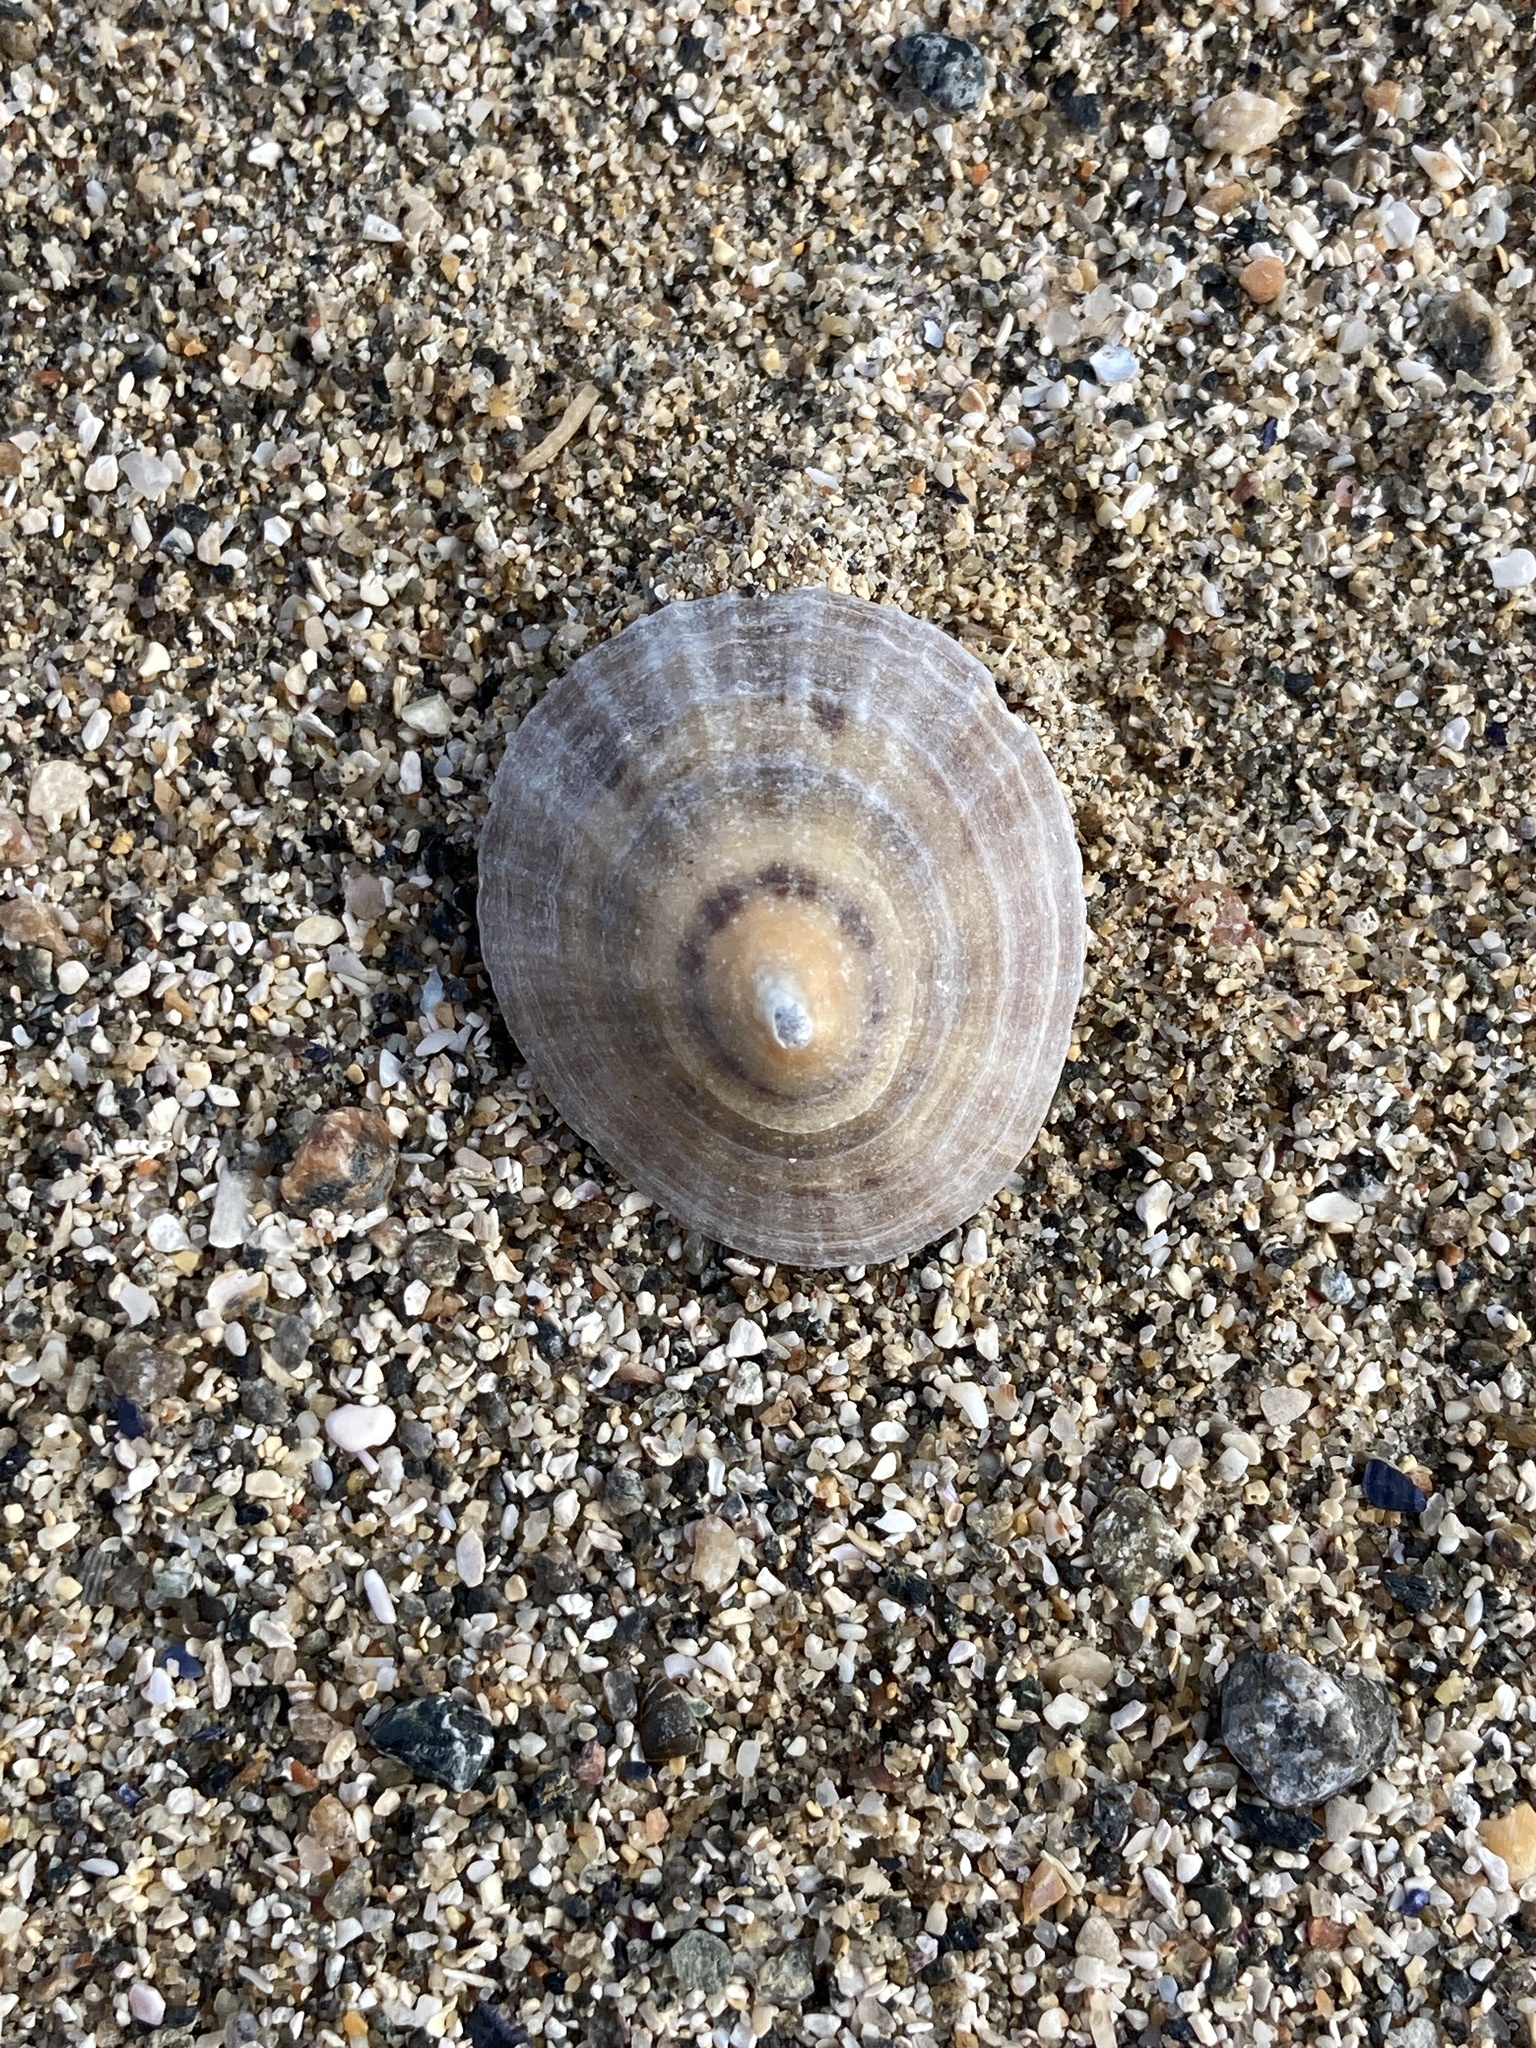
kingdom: Animalia
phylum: Mollusca
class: Gastropoda
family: Patellidae
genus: Patella
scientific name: Patella vulgata
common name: Common limpet
